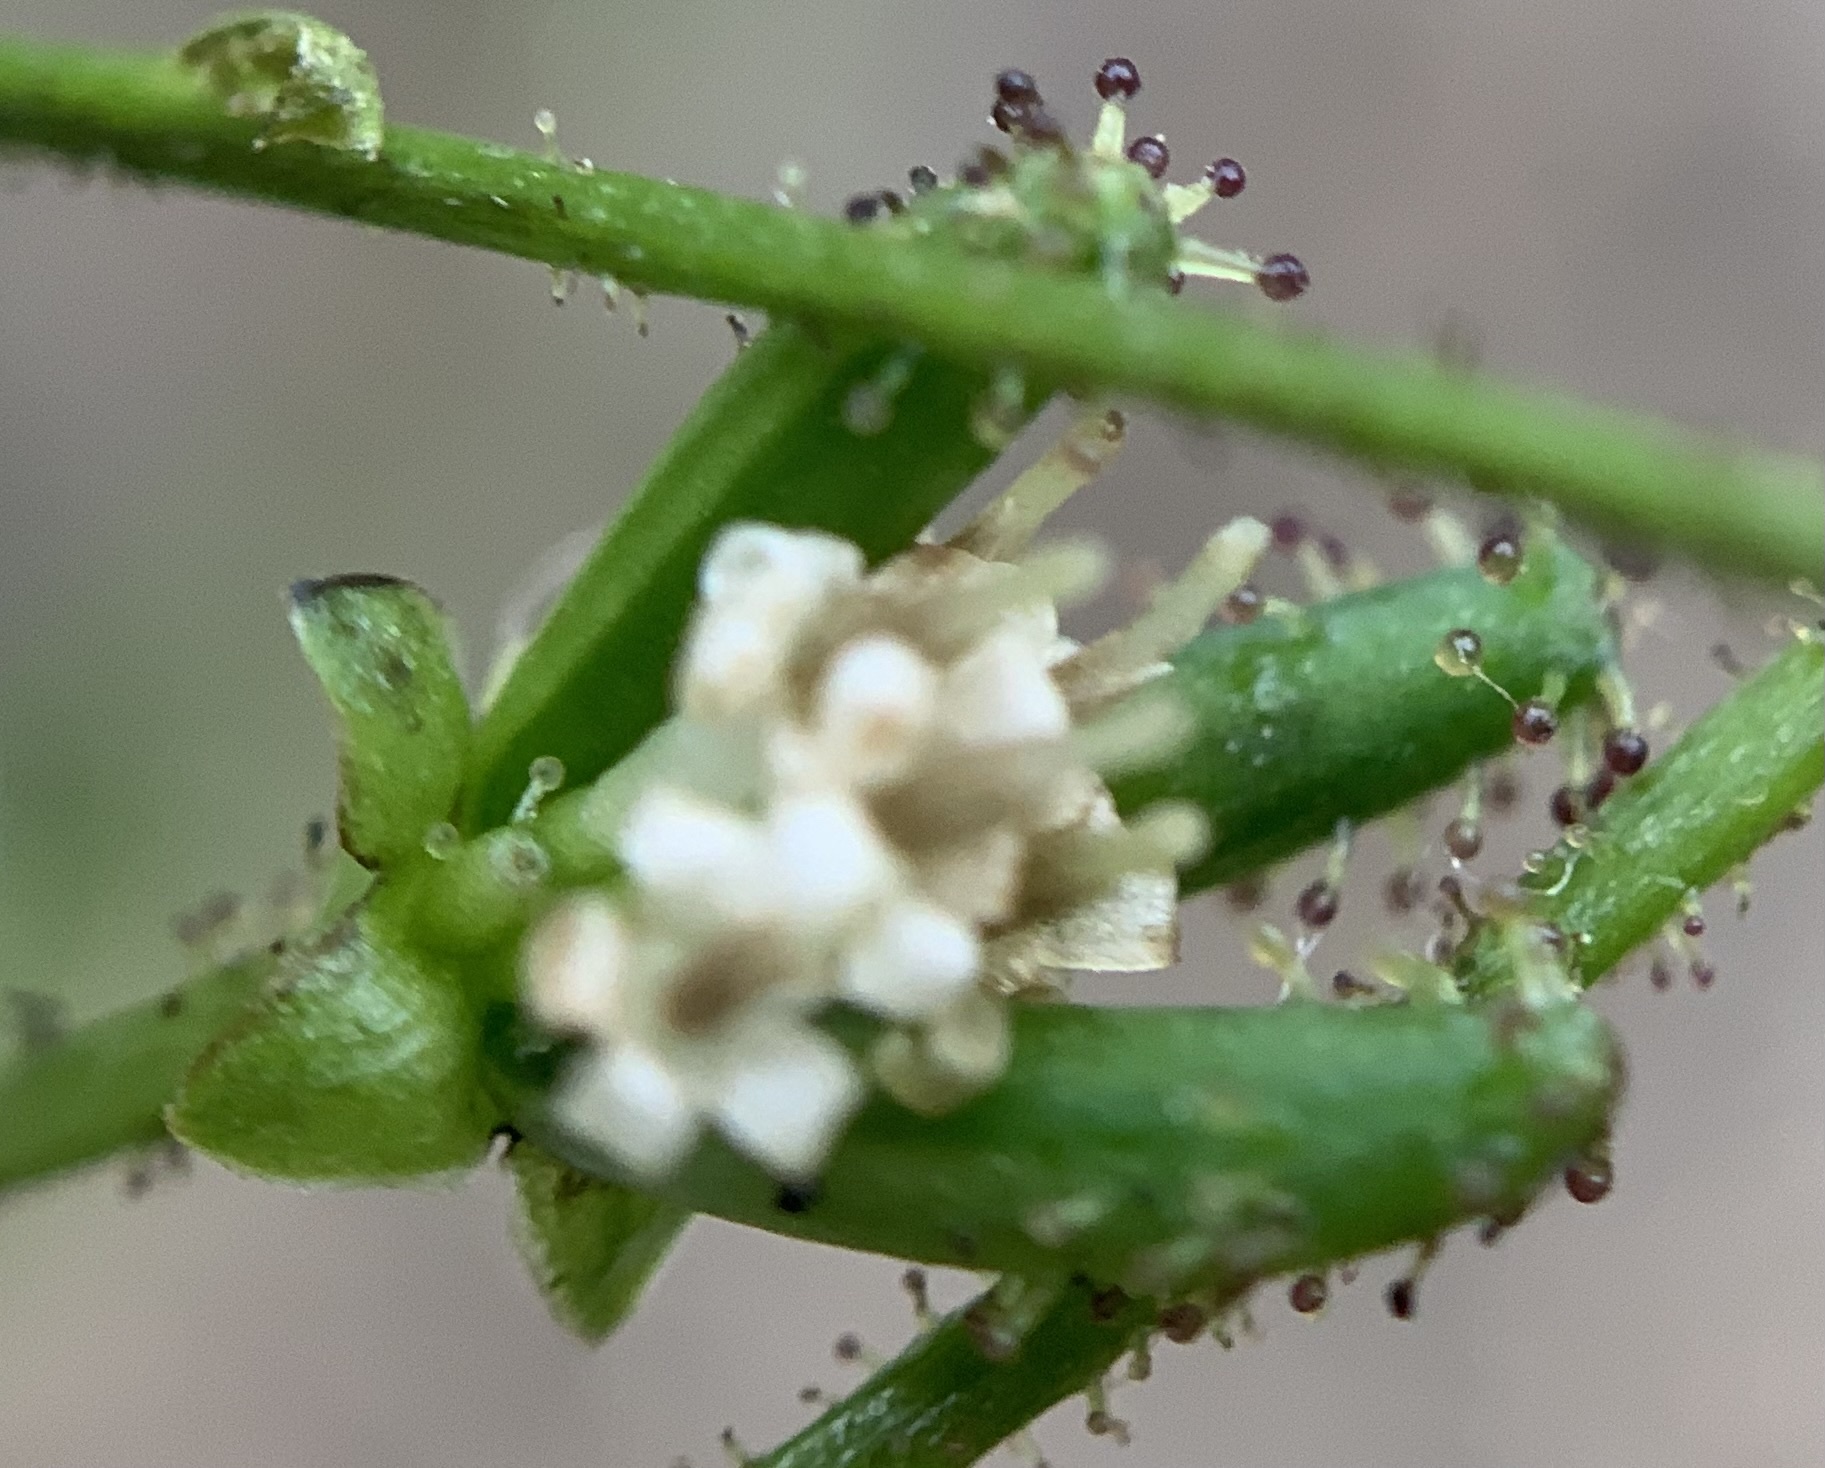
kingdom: Plantae
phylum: Tracheophyta
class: Magnoliopsida
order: Asterales
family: Asteraceae
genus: Adenocaulon
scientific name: Adenocaulon bicolor
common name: Trailplant
